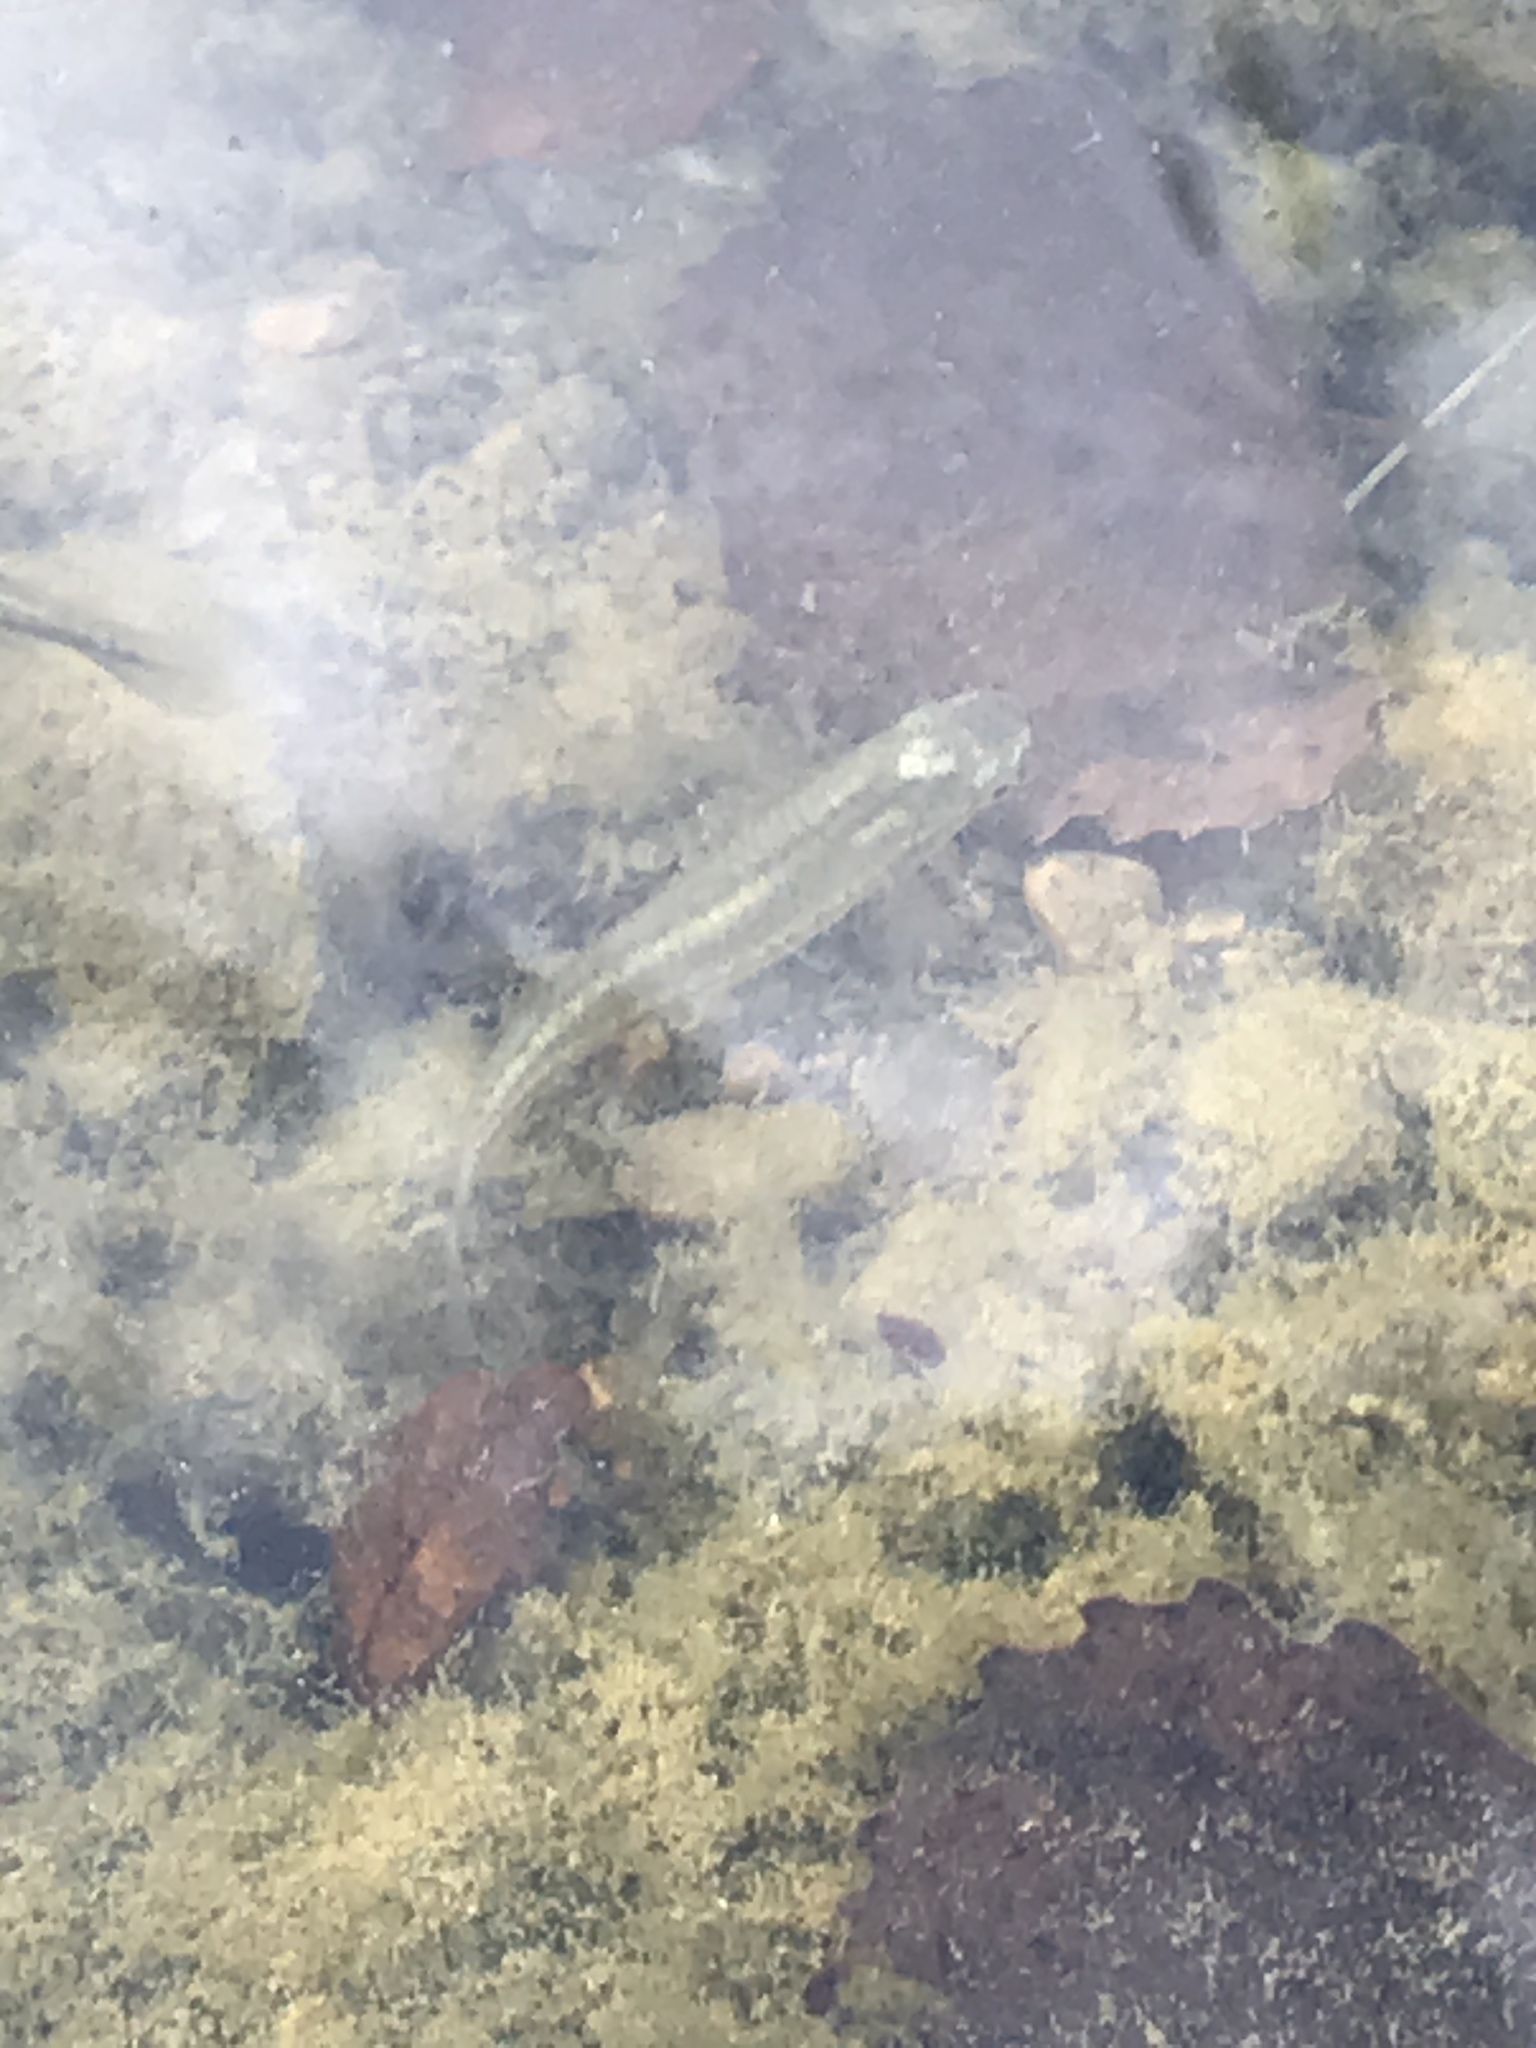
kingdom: Animalia
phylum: Chordata
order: Cyprinodontiformes
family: Fundulidae
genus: Fundulus
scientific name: Fundulus notatus
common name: Blackstripe topminnow
